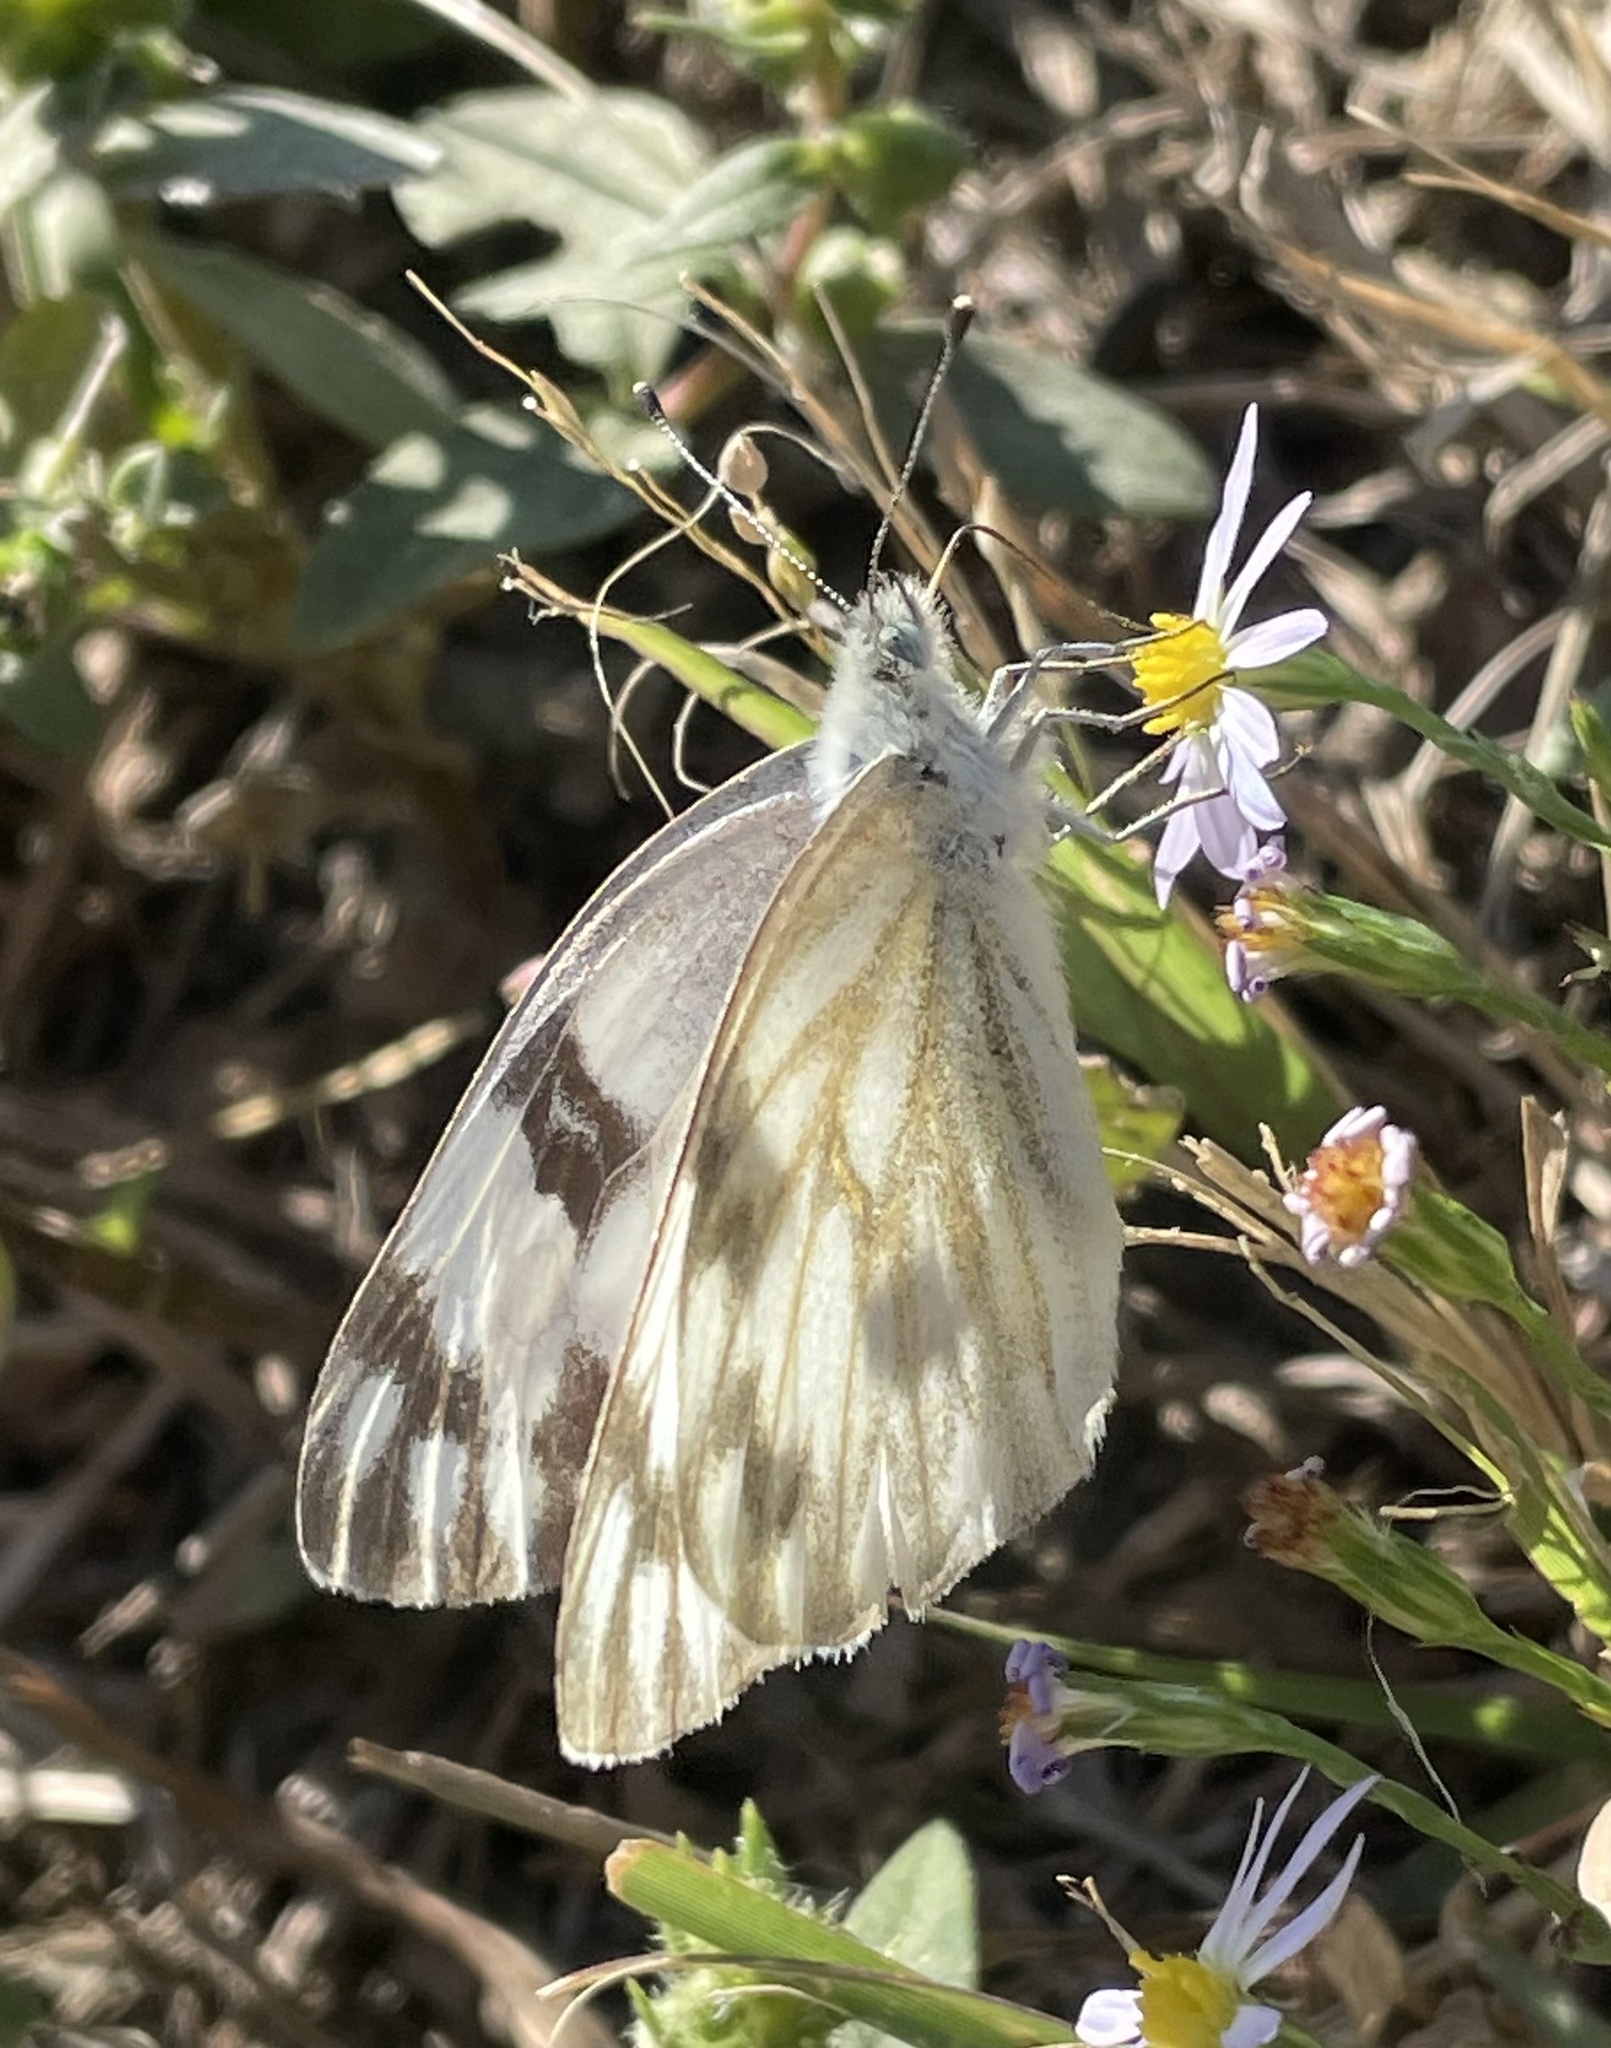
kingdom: Animalia
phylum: Arthropoda
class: Insecta
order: Lepidoptera
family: Pieridae
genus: Pontia
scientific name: Pontia protodice
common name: Checkered white
